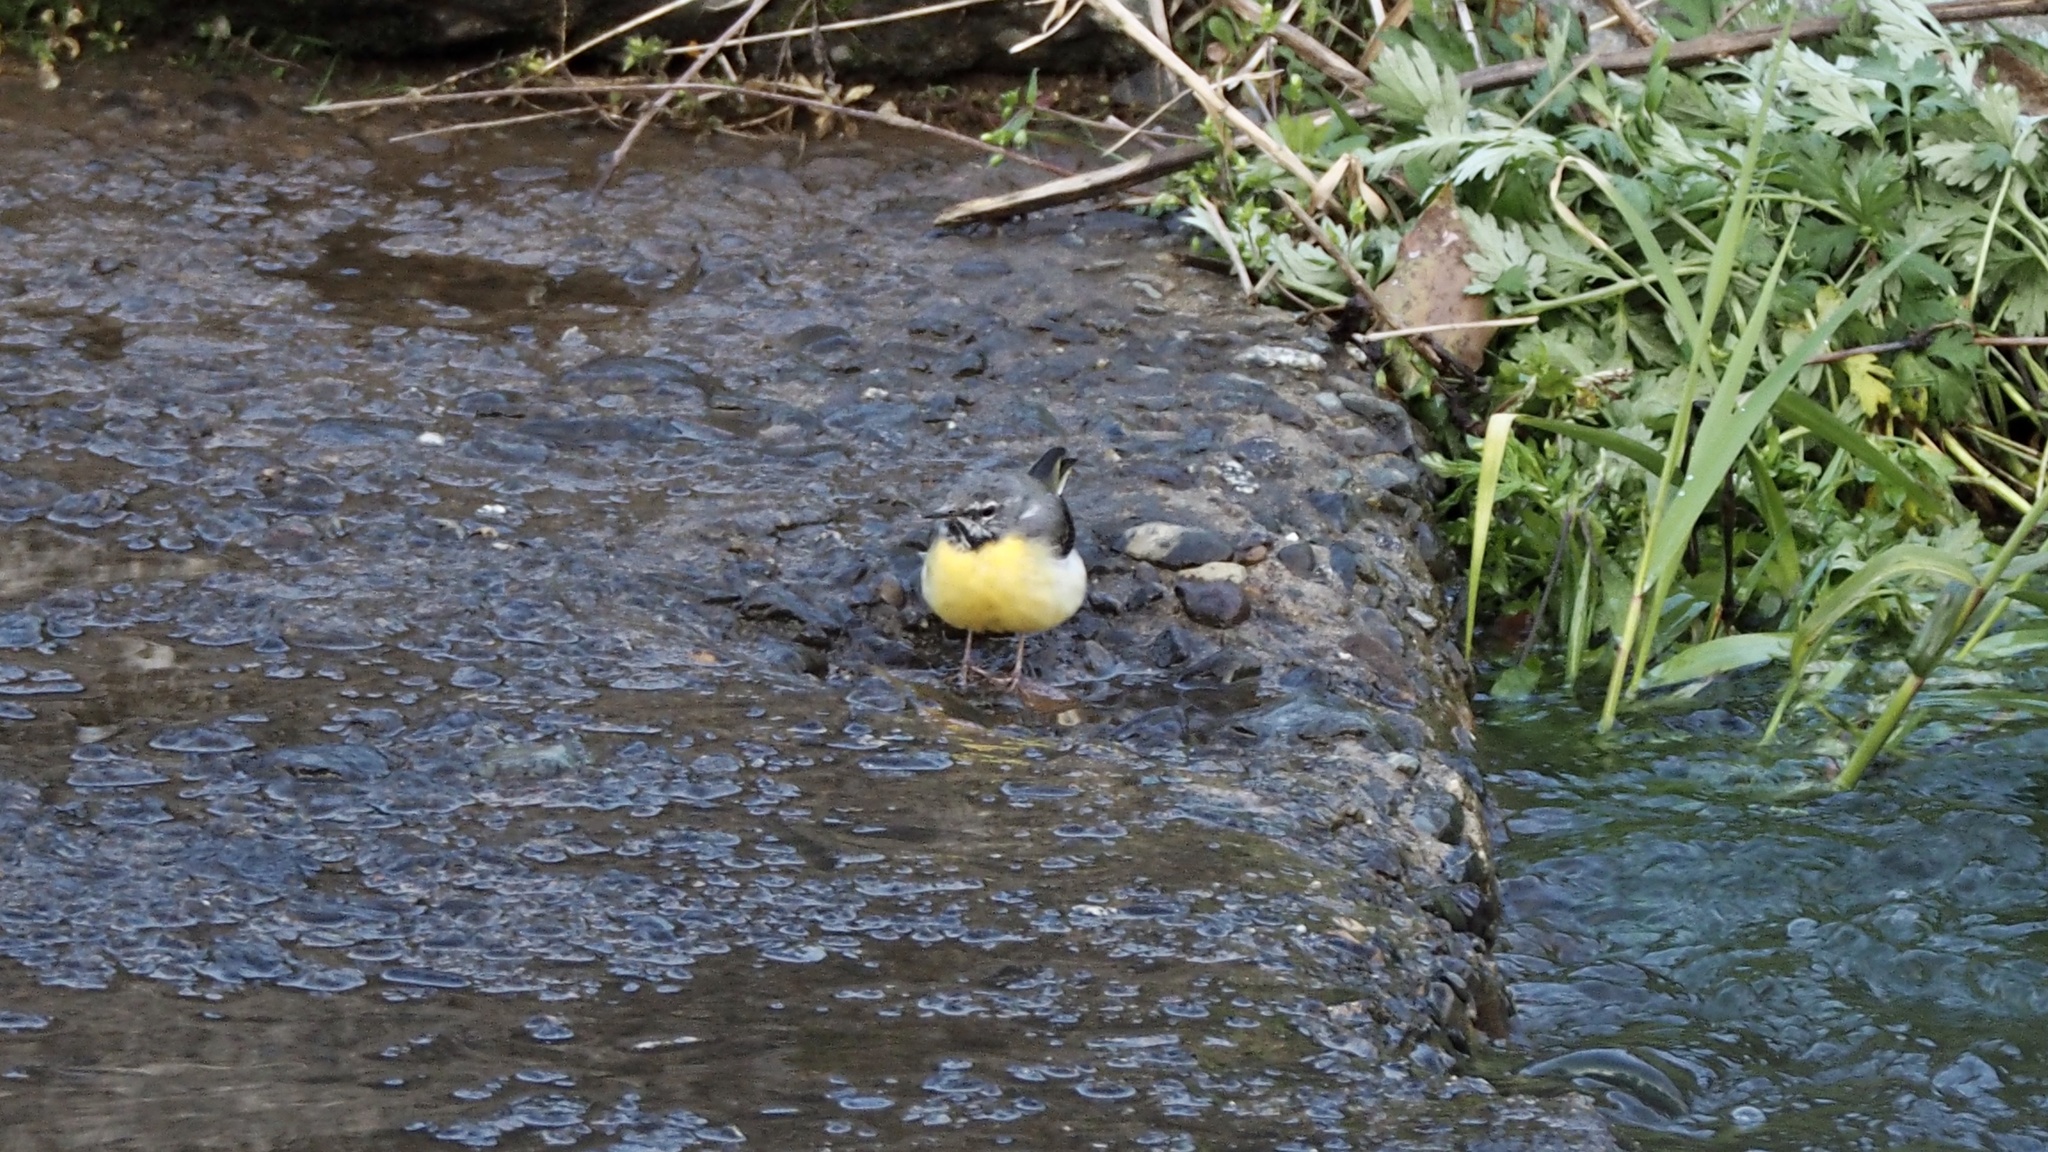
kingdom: Animalia
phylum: Chordata
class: Aves
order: Passeriformes
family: Motacillidae
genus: Motacilla
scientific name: Motacilla cinerea
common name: Grey wagtail
